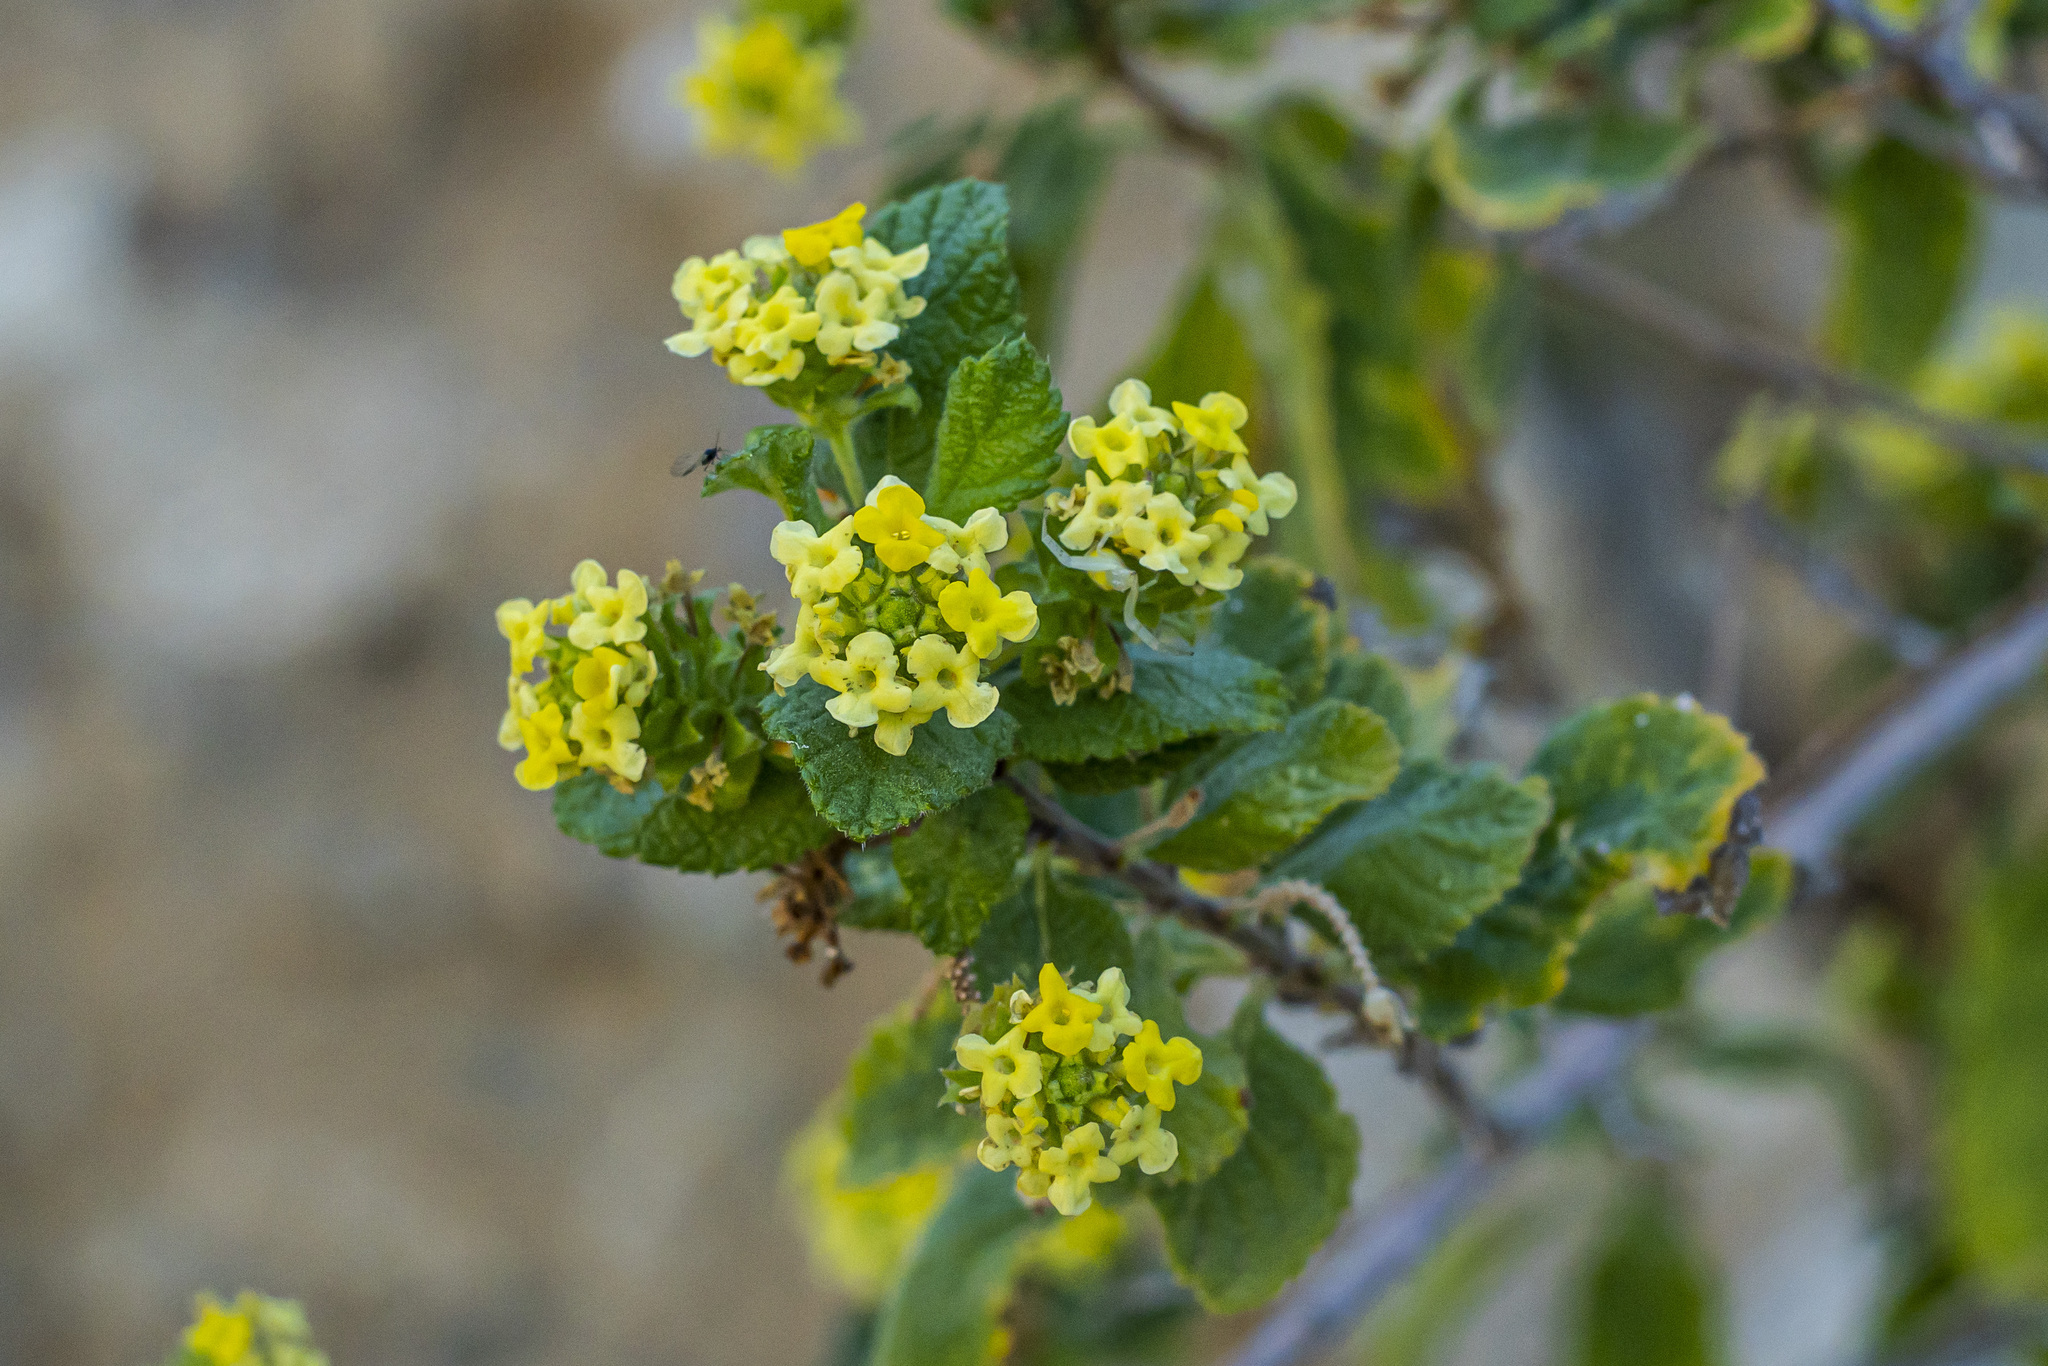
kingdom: Plantae
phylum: Tracheophyta
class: Magnoliopsida
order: Lamiales
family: Verbenaceae
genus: Aloysia
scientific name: Aloysia barbata
